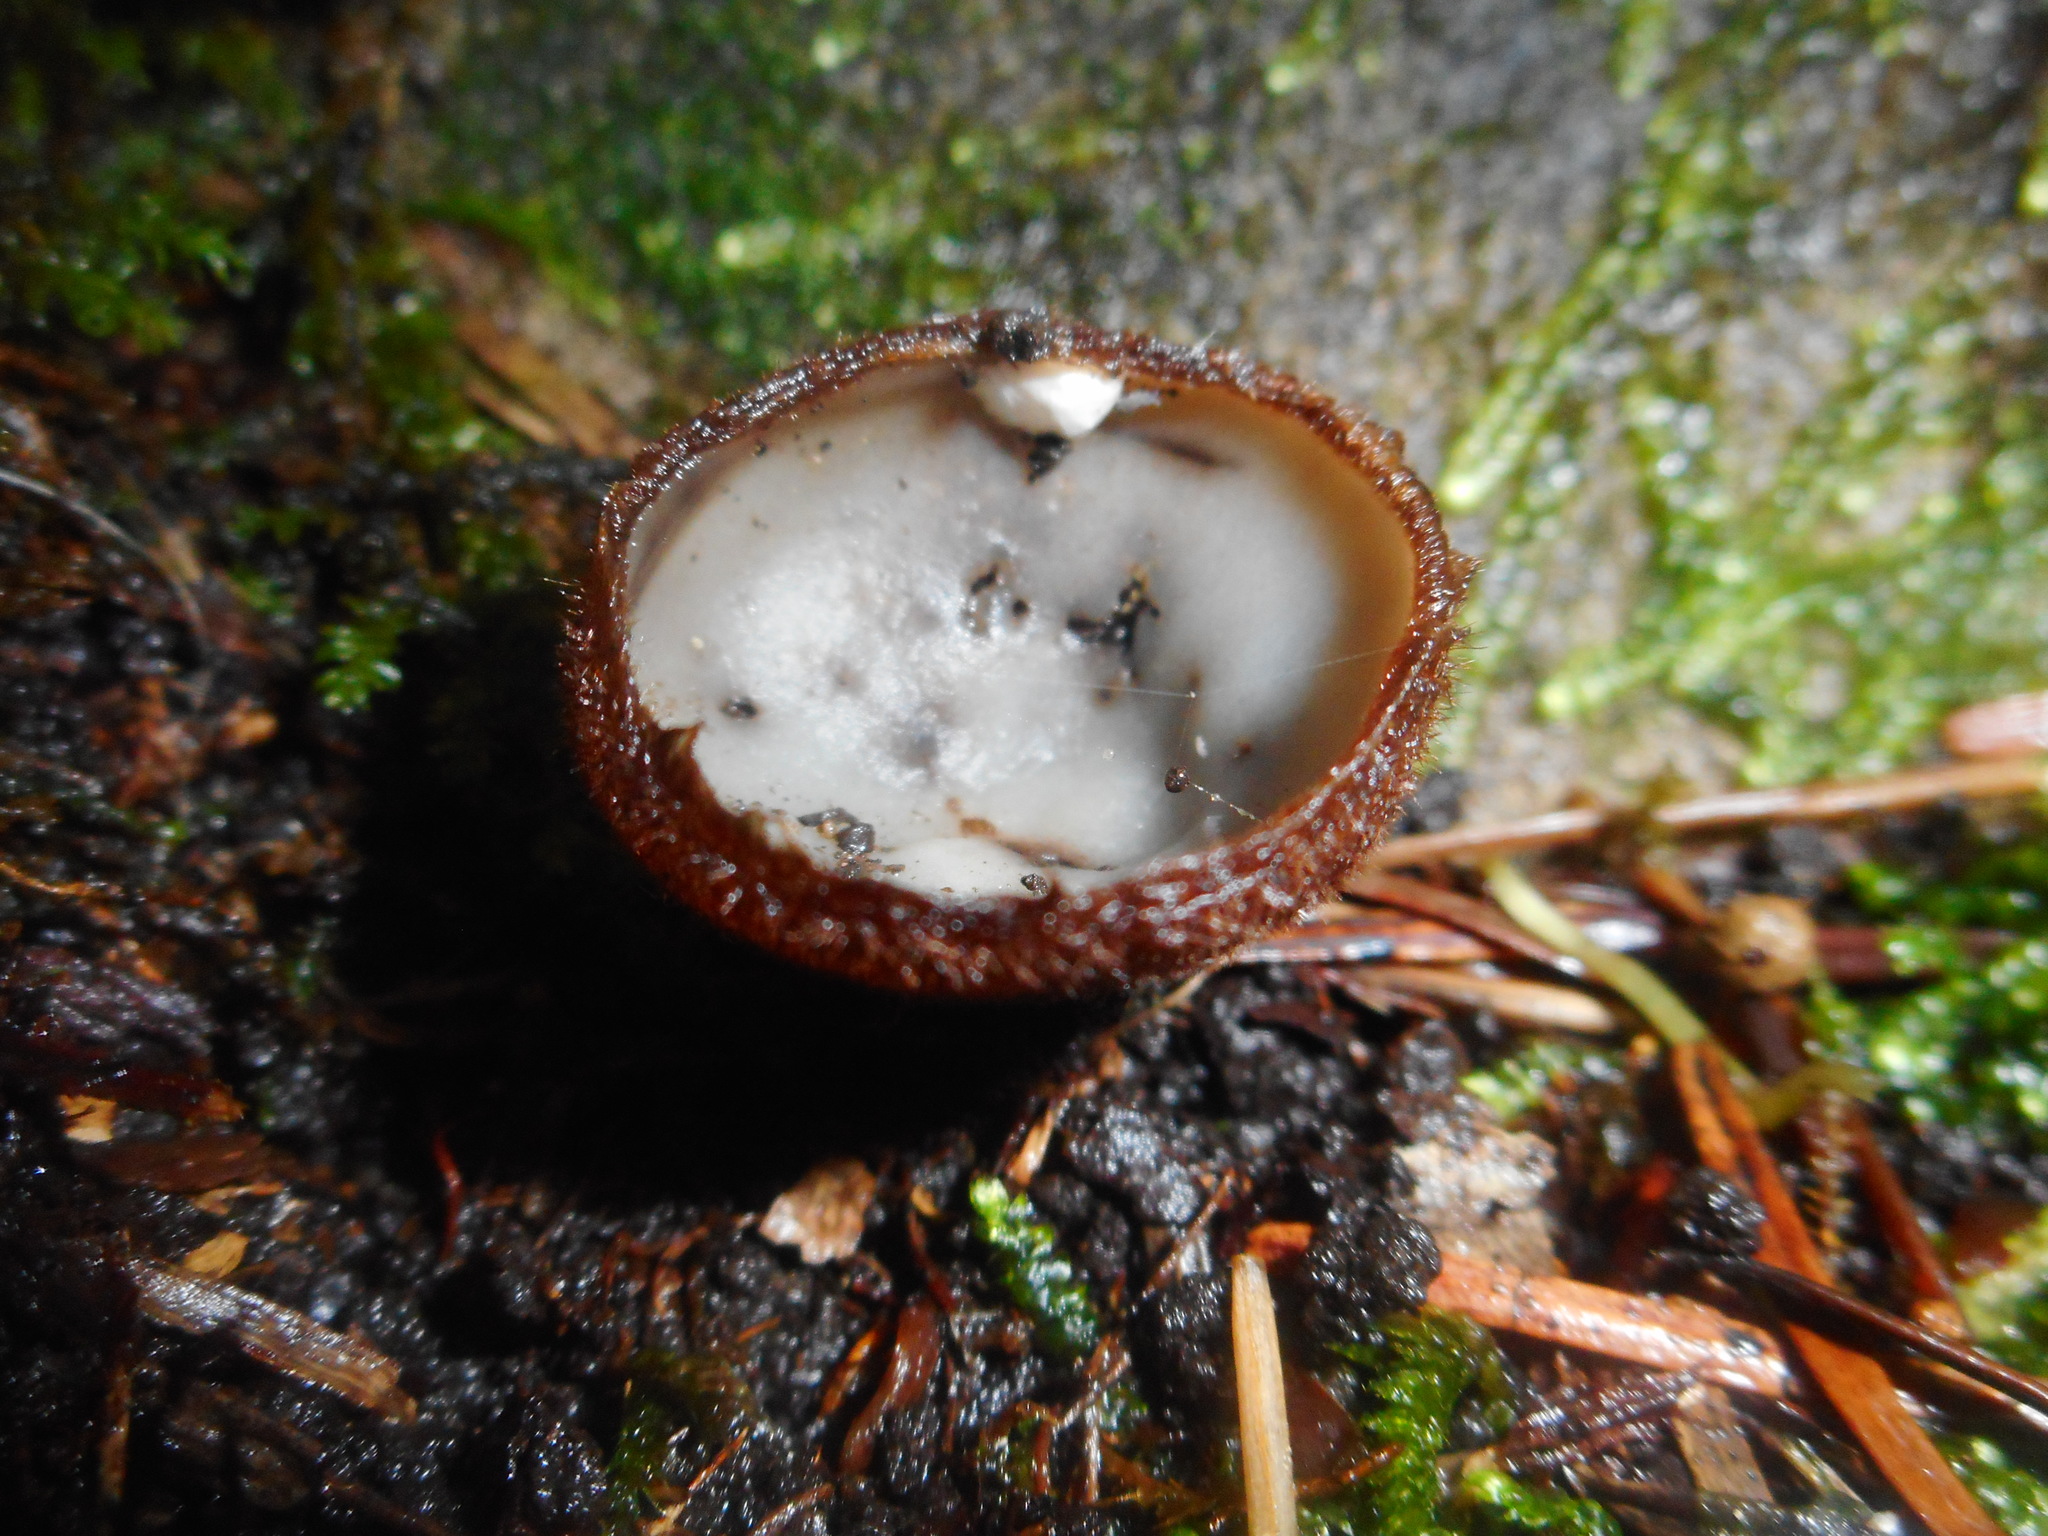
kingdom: Fungi
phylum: Ascomycota
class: Pezizomycetes
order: Pezizales
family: Pyronemataceae
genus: Humaria
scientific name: Humaria hemisphaerica
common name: Glazed cup
